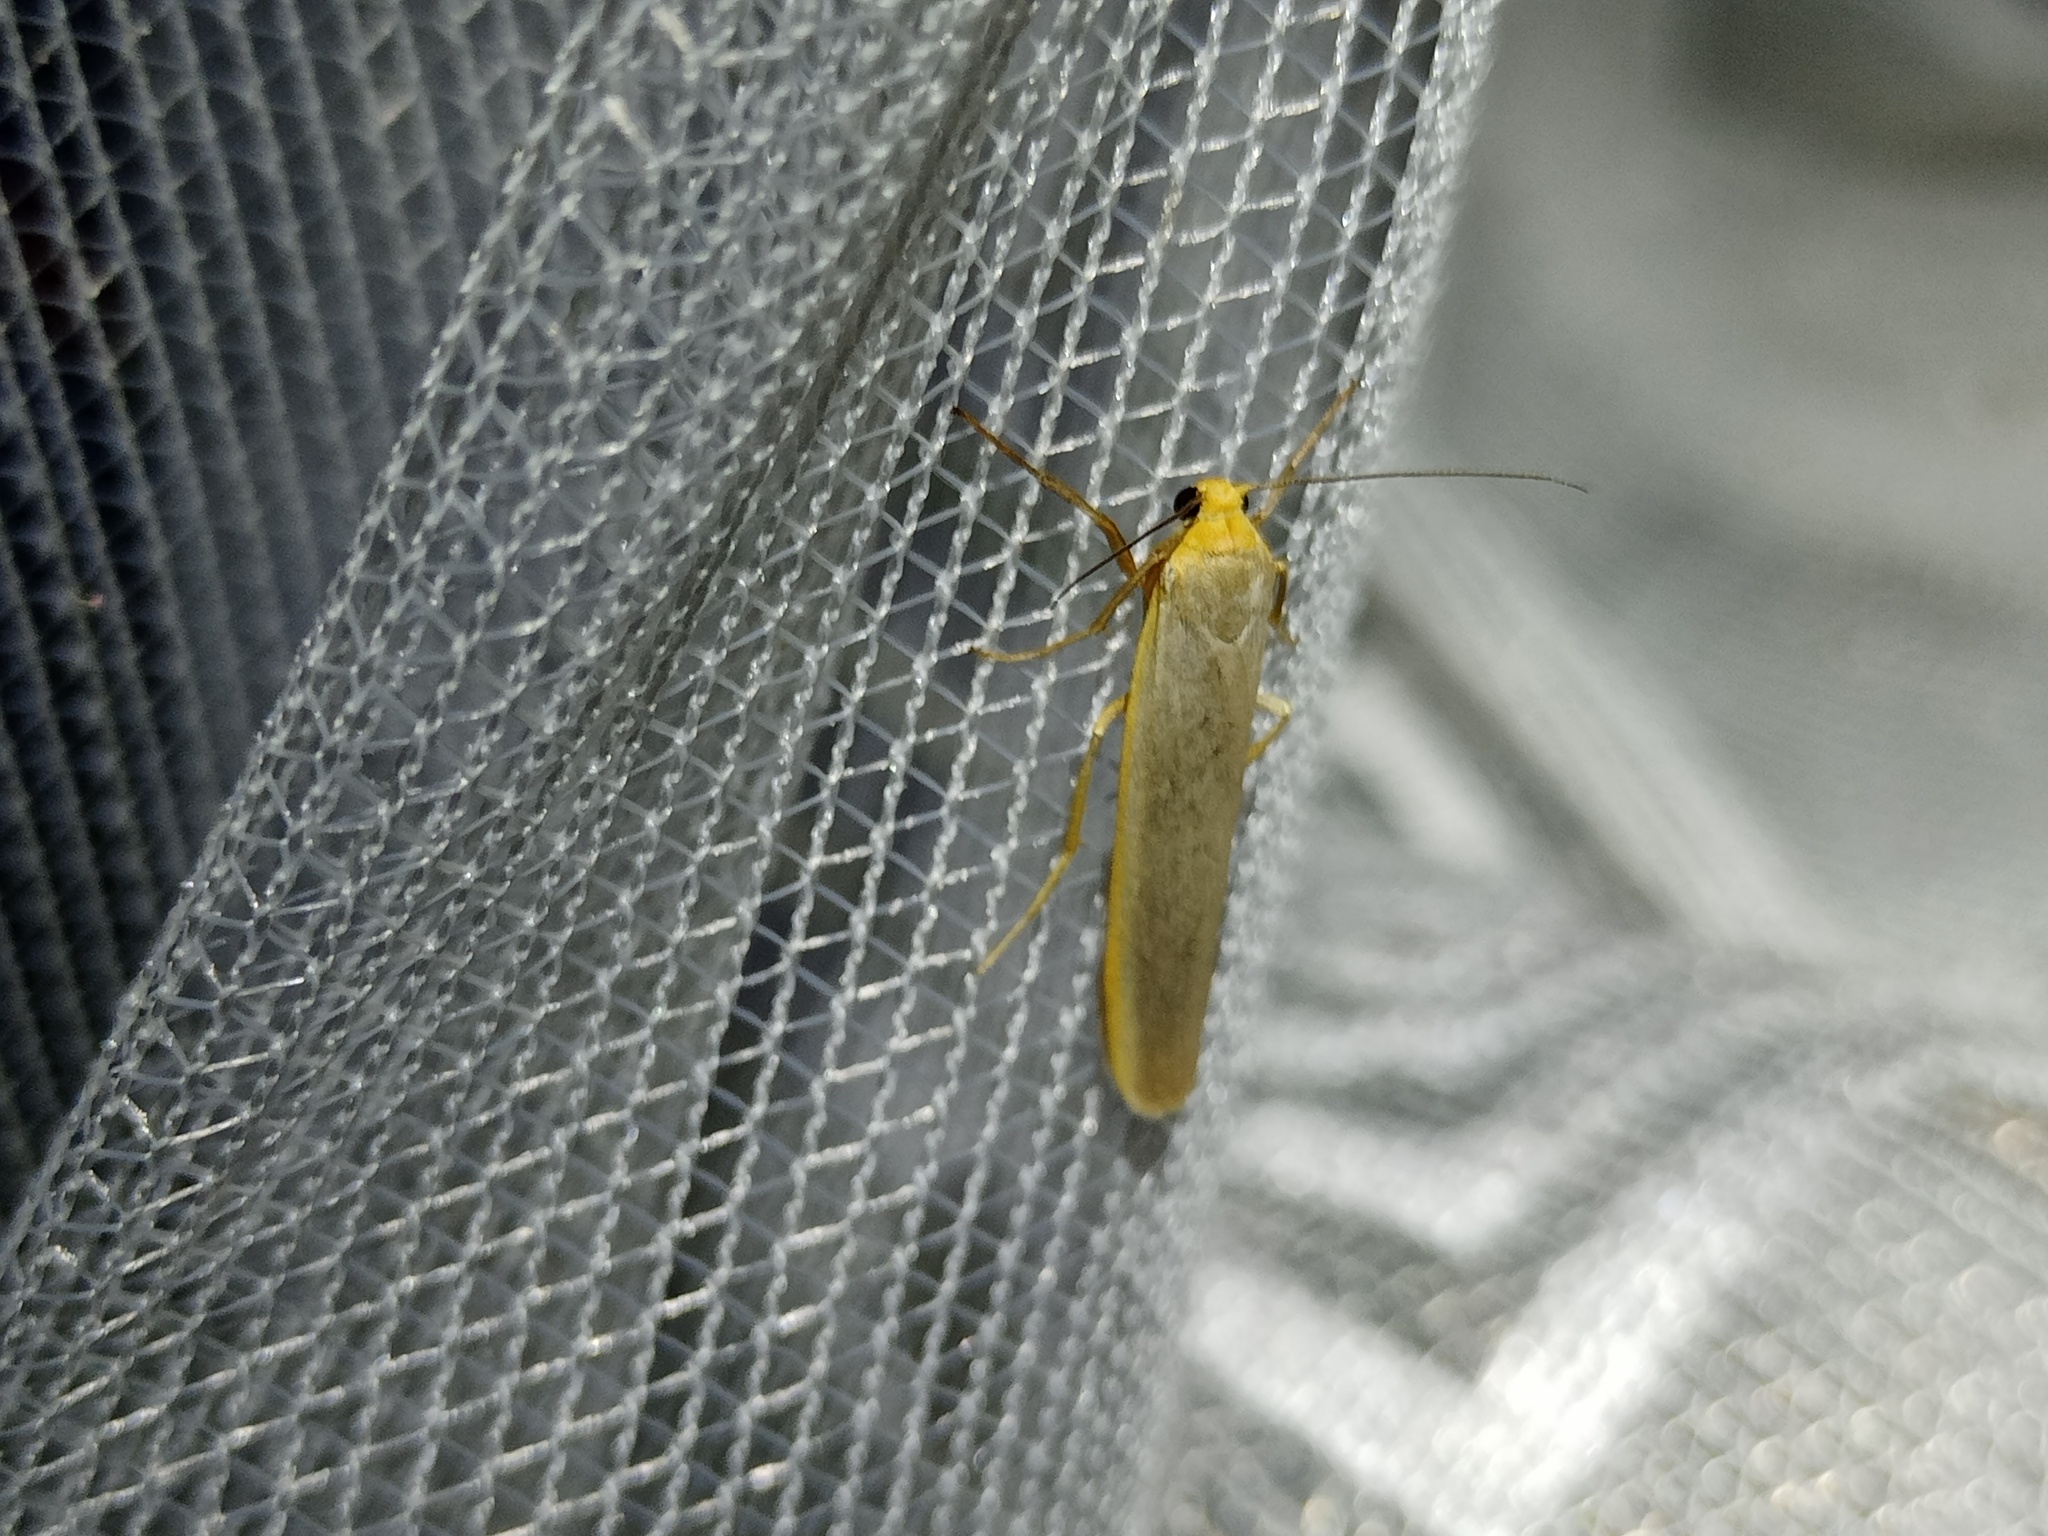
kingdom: Animalia
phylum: Arthropoda
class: Insecta
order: Lepidoptera
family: Erebidae
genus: Manulea
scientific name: Manulea complana
